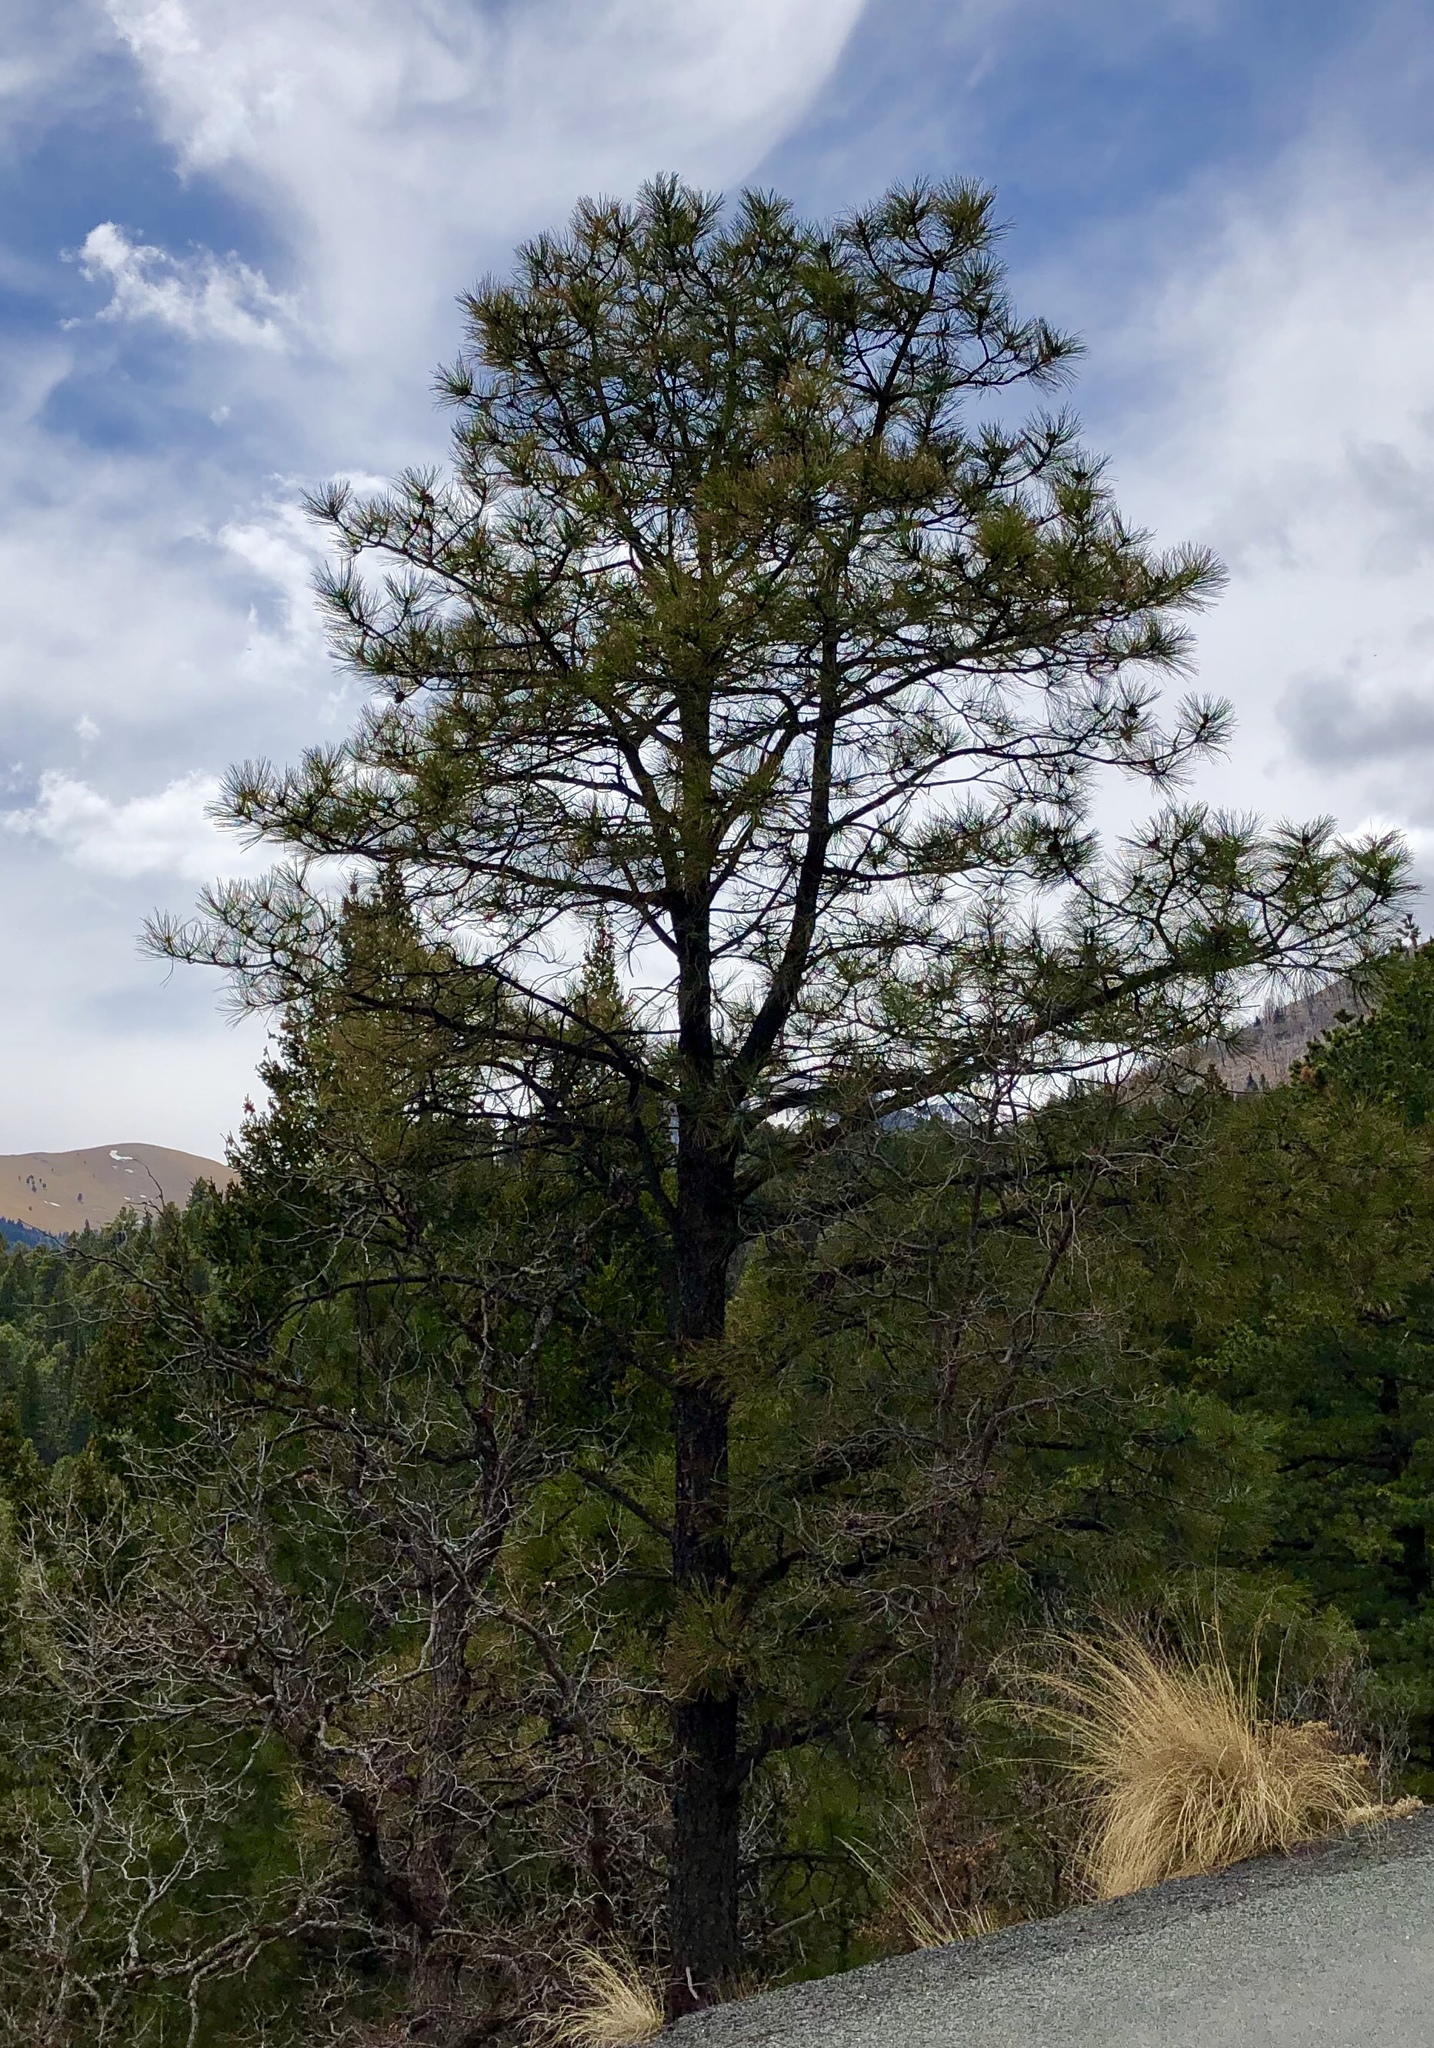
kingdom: Plantae
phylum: Tracheophyta
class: Pinopsida
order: Pinales
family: Pinaceae
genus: Pinus
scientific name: Pinus ponderosa
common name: Western yellow-pine
